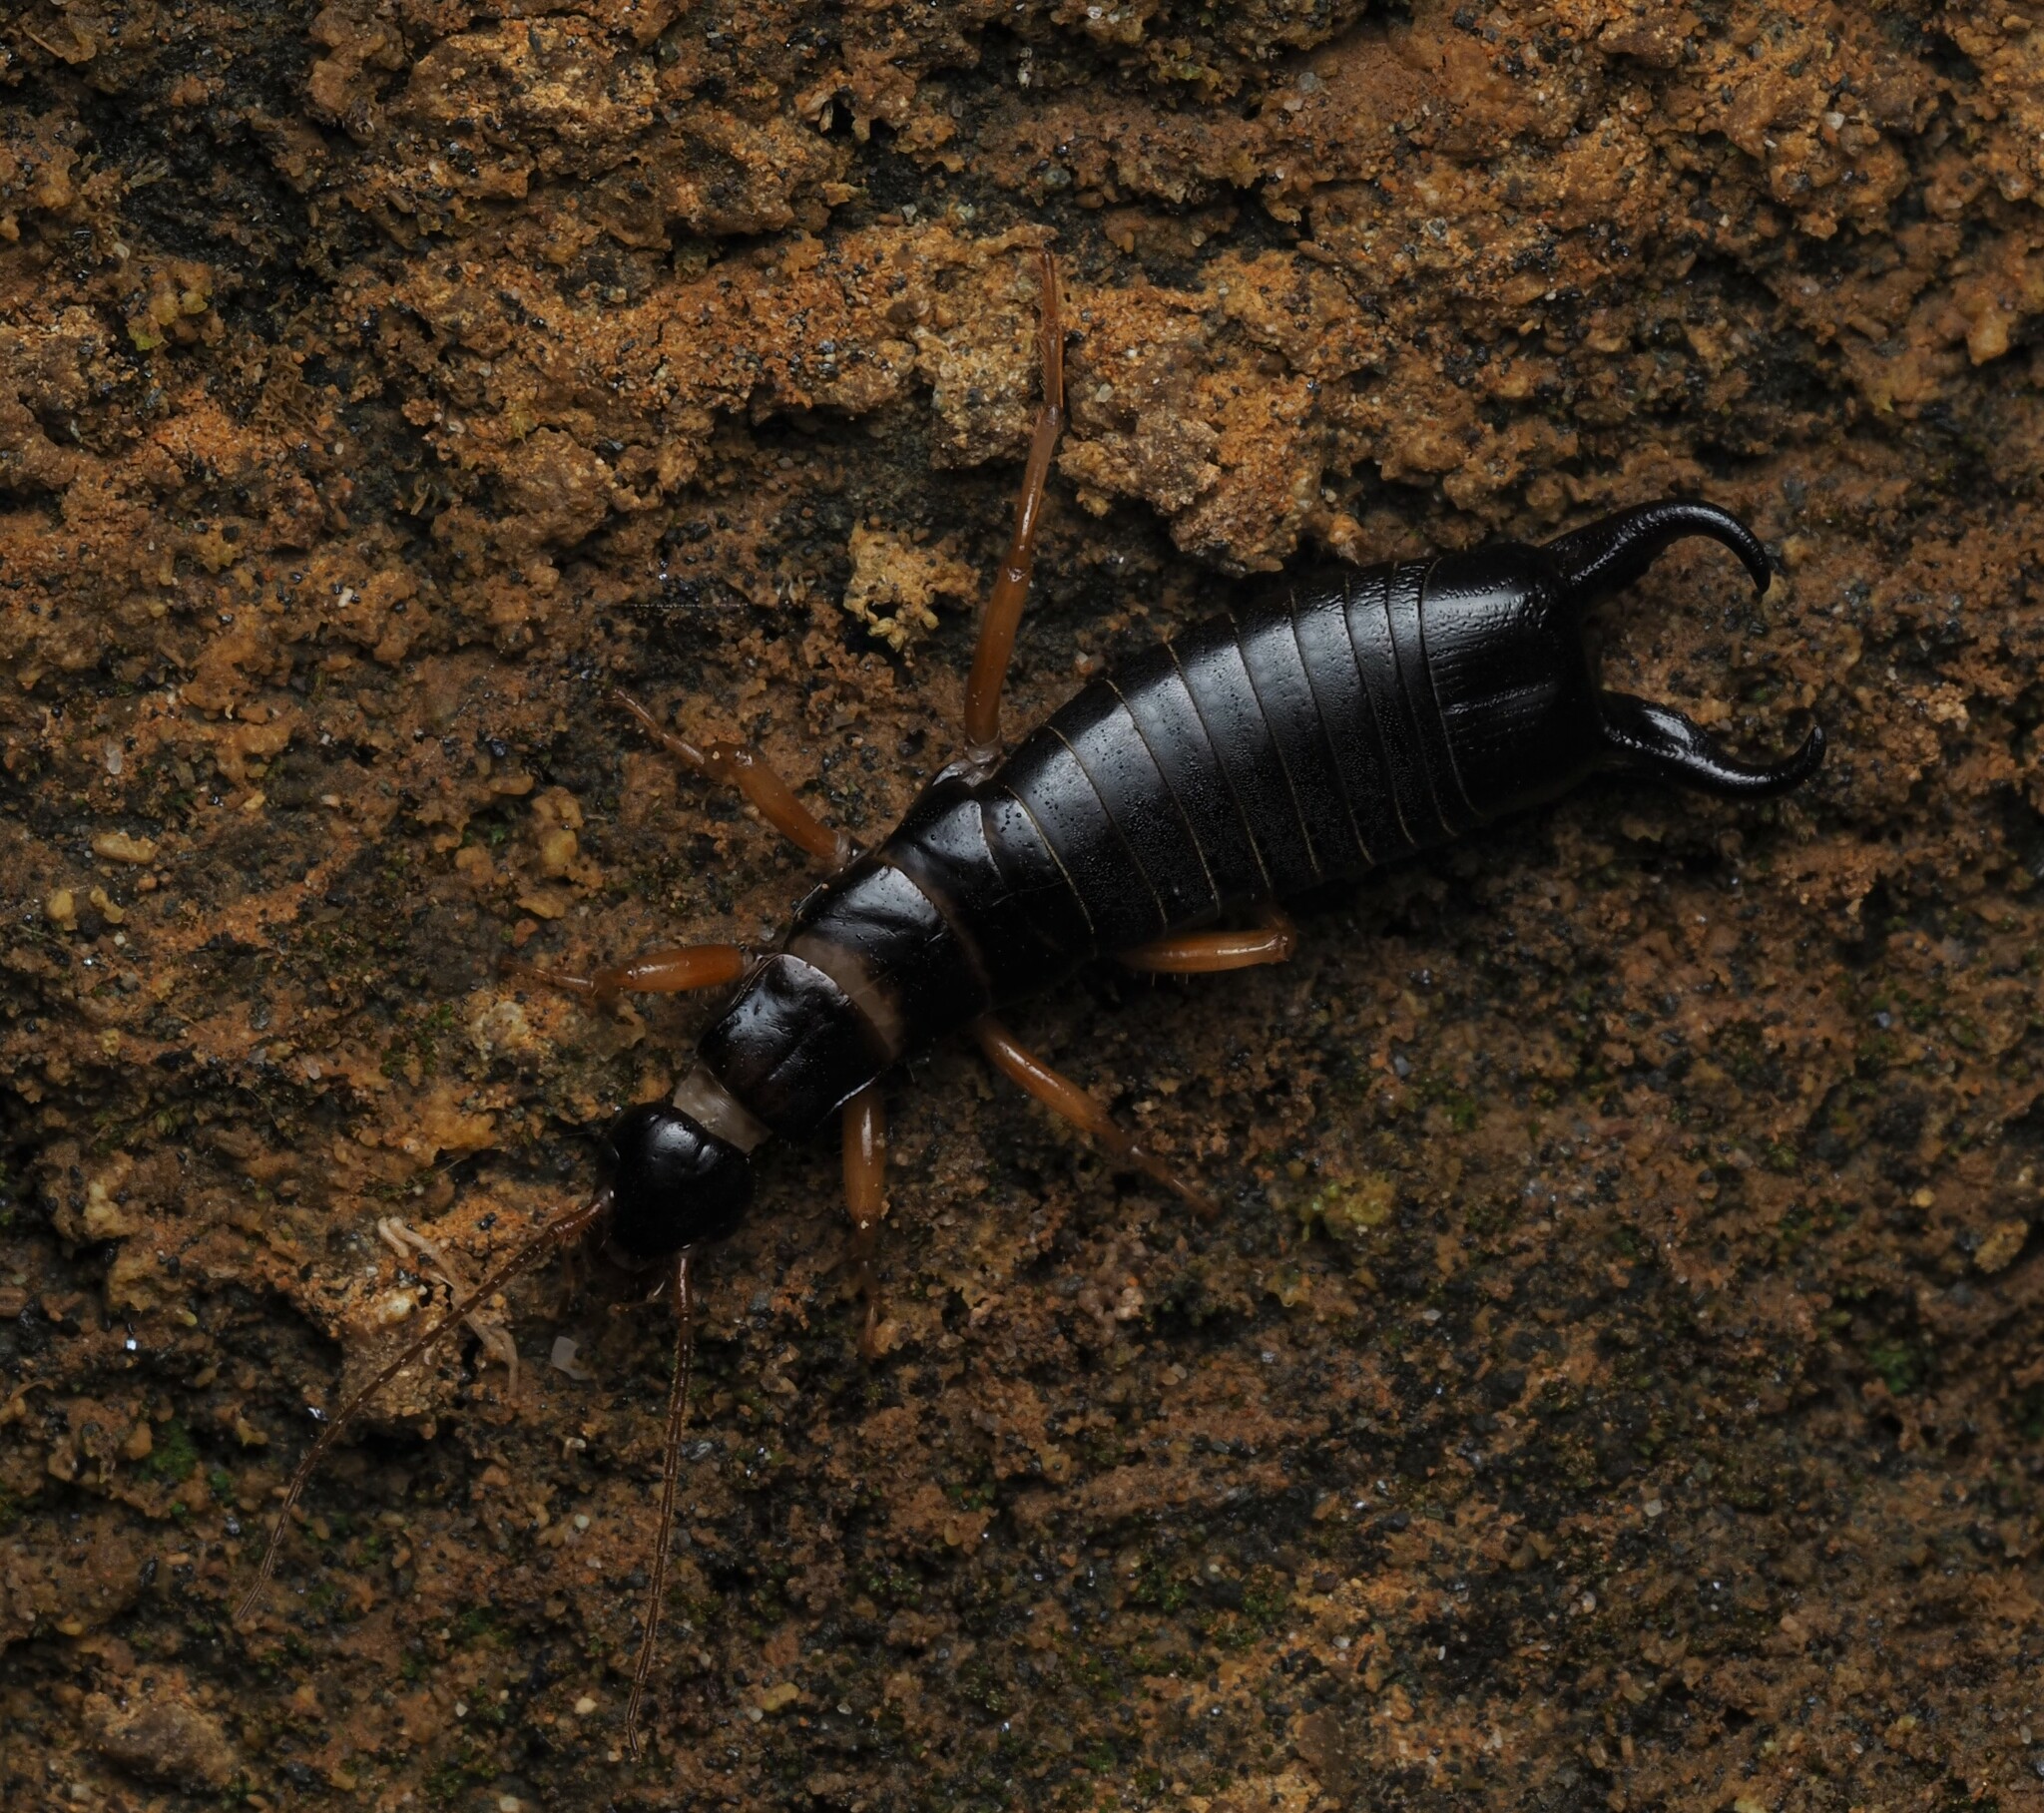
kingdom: Animalia
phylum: Arthropoda
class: Insecta
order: Dermaptera
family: Anisolabididae
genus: Anisolabis
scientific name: Anisolabis littorea
